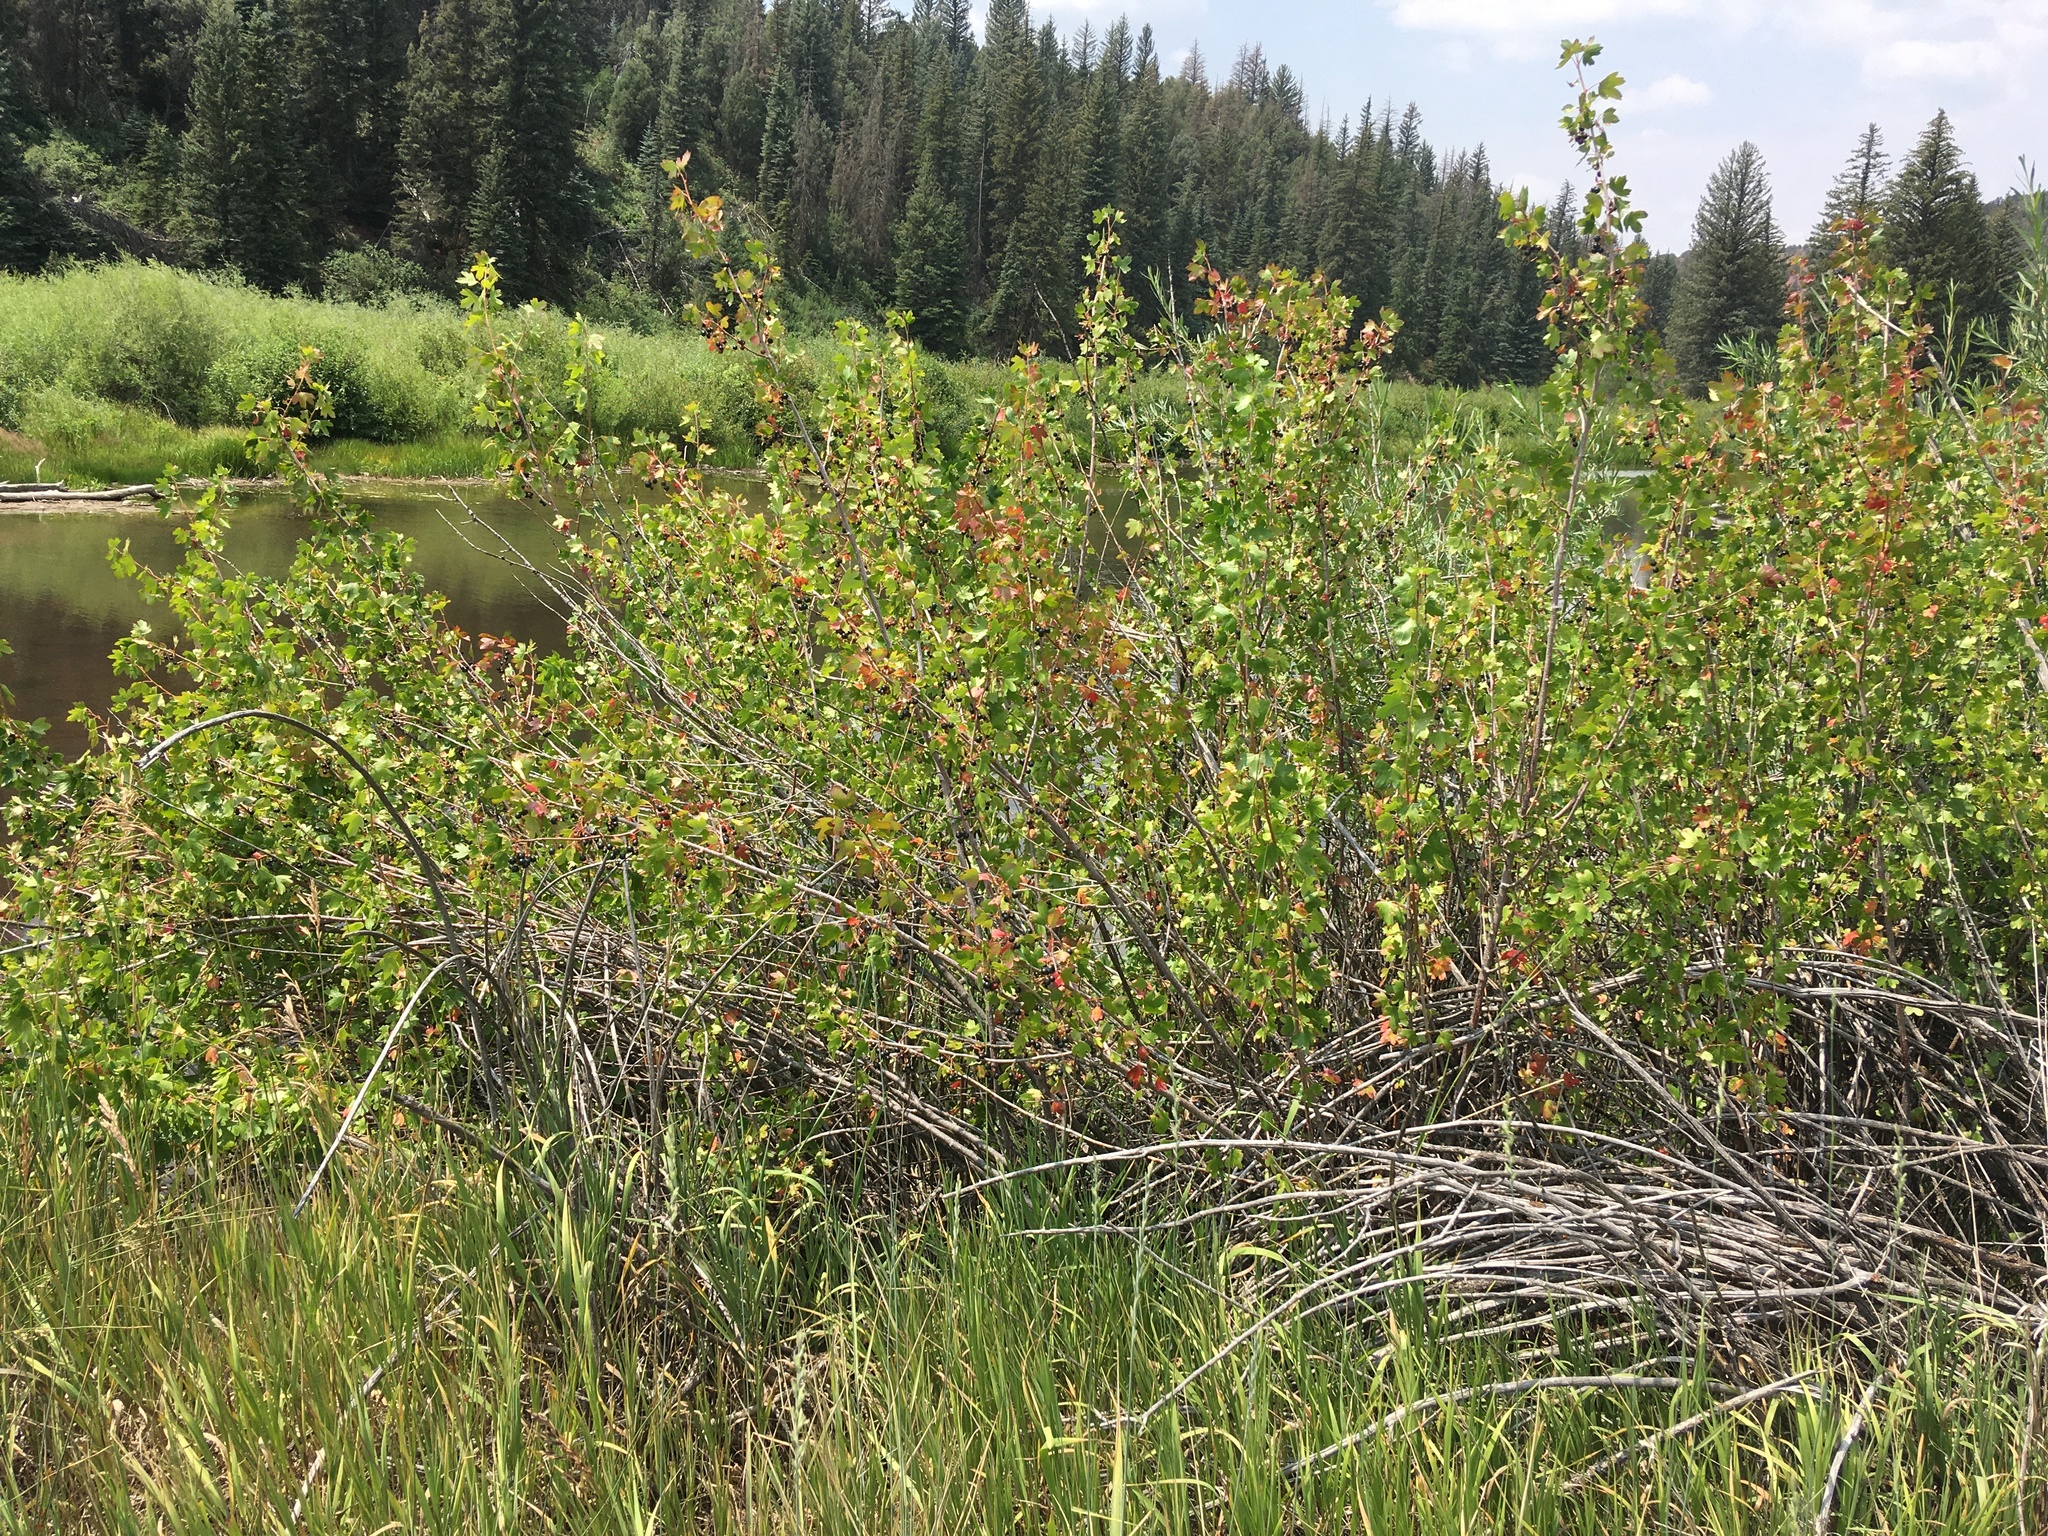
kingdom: Plantae
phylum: Tracheophyta
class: Magnoliopsida
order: Saxifragales
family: Grossulariaceae
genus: Ribes
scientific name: Ribes aureum
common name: Golden currant
